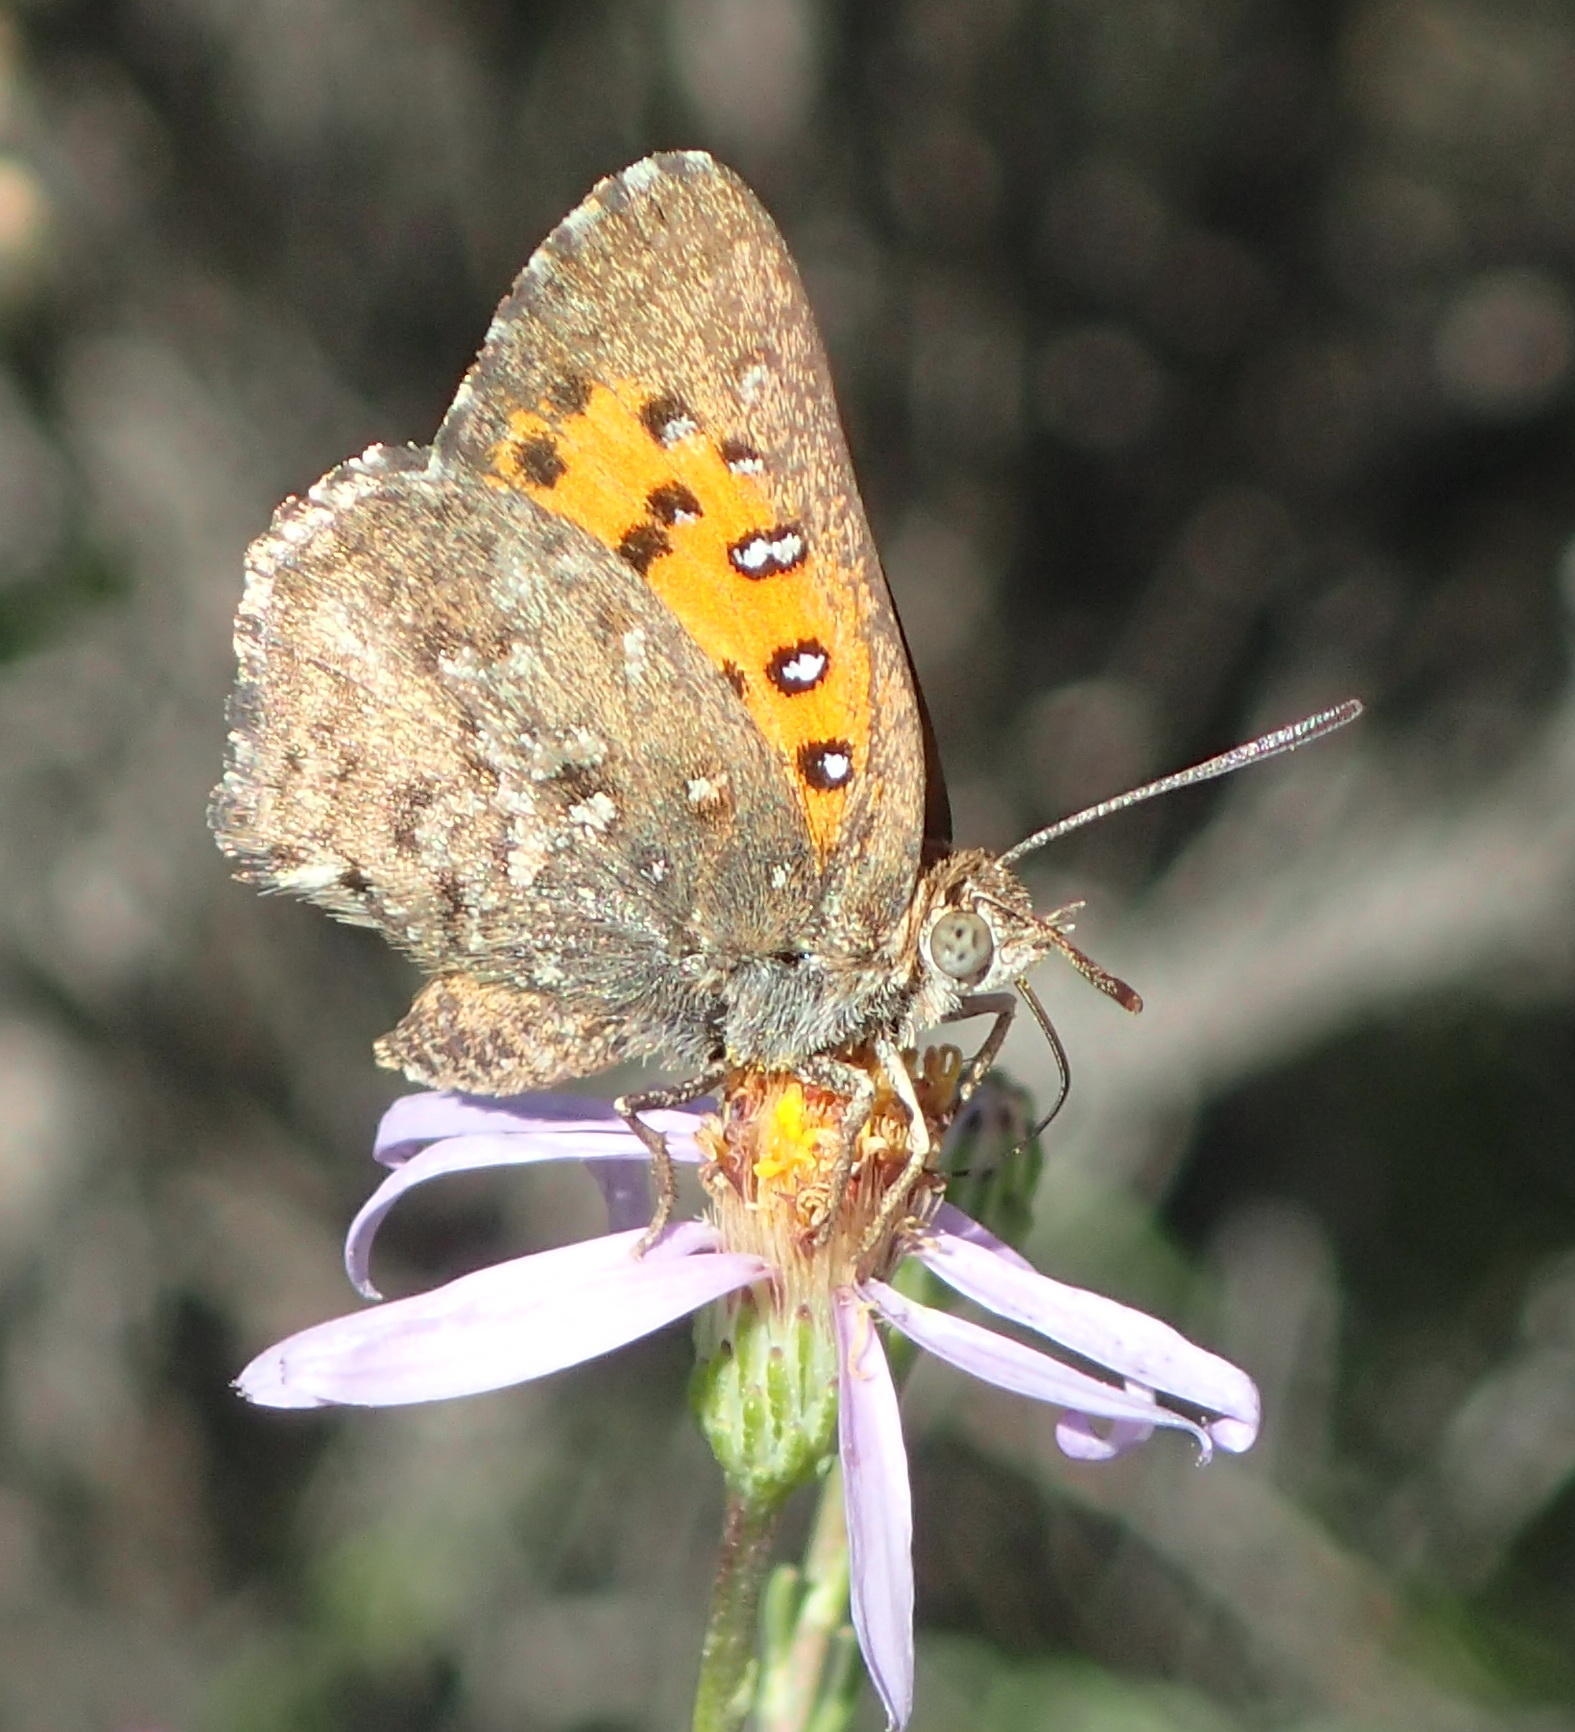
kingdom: Animalia
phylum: Arthropoda
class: Insecta
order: Lepidoptera
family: Lycaenidae
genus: Aloeides
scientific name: Aloeides depicta
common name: Depicta copper
